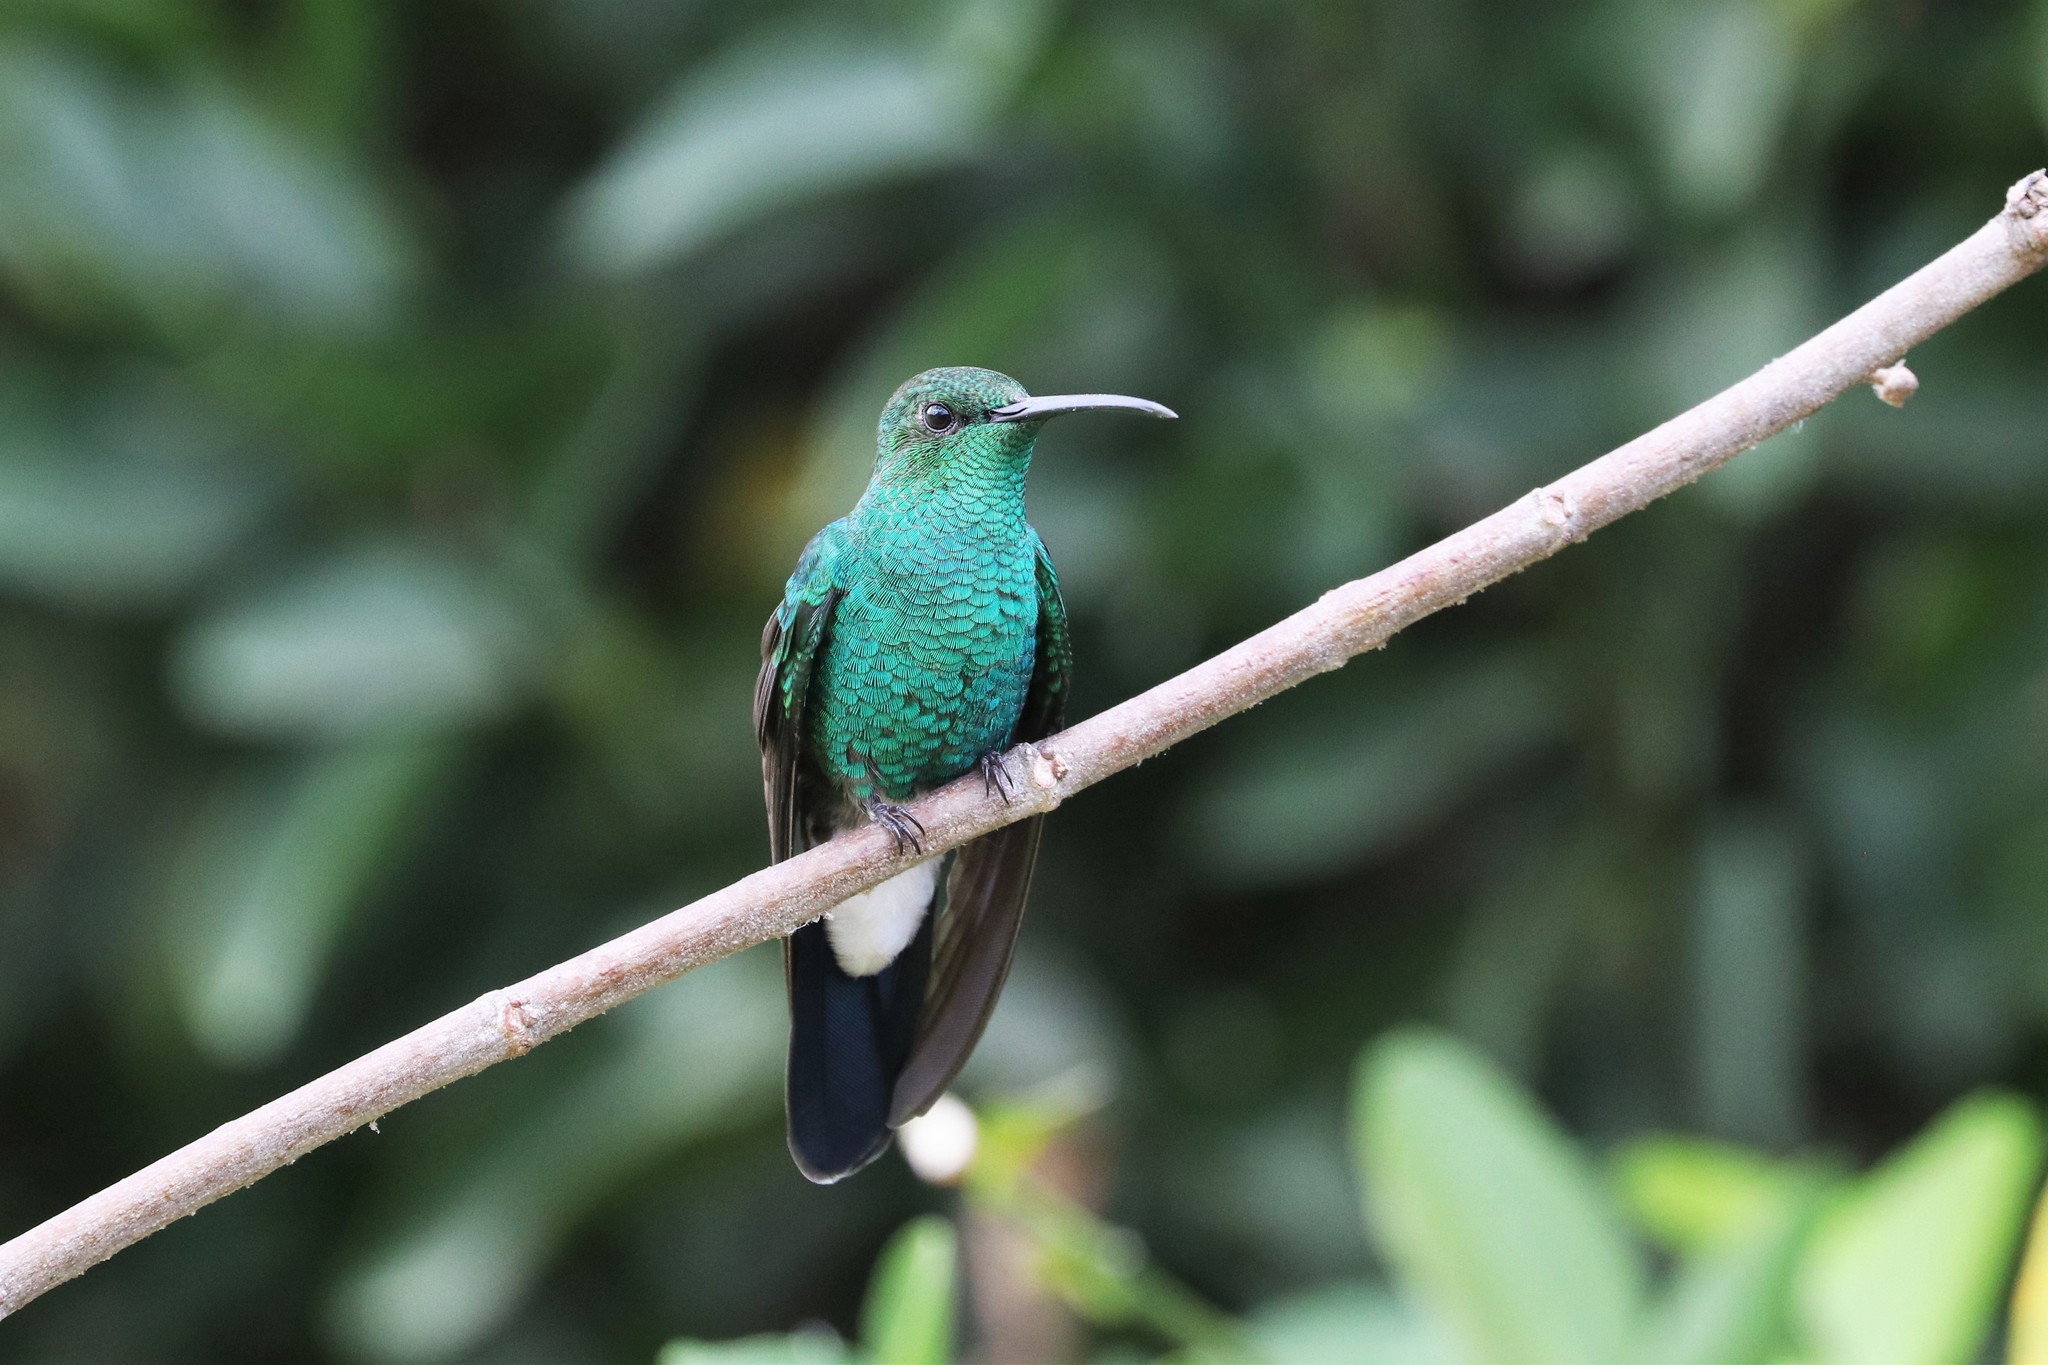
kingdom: Animalia
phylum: Chordata
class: Aves
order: Apodiformes
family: Trochilidae
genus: Chalybura
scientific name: Chalybura buffonii
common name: White-vented plumeleteer
